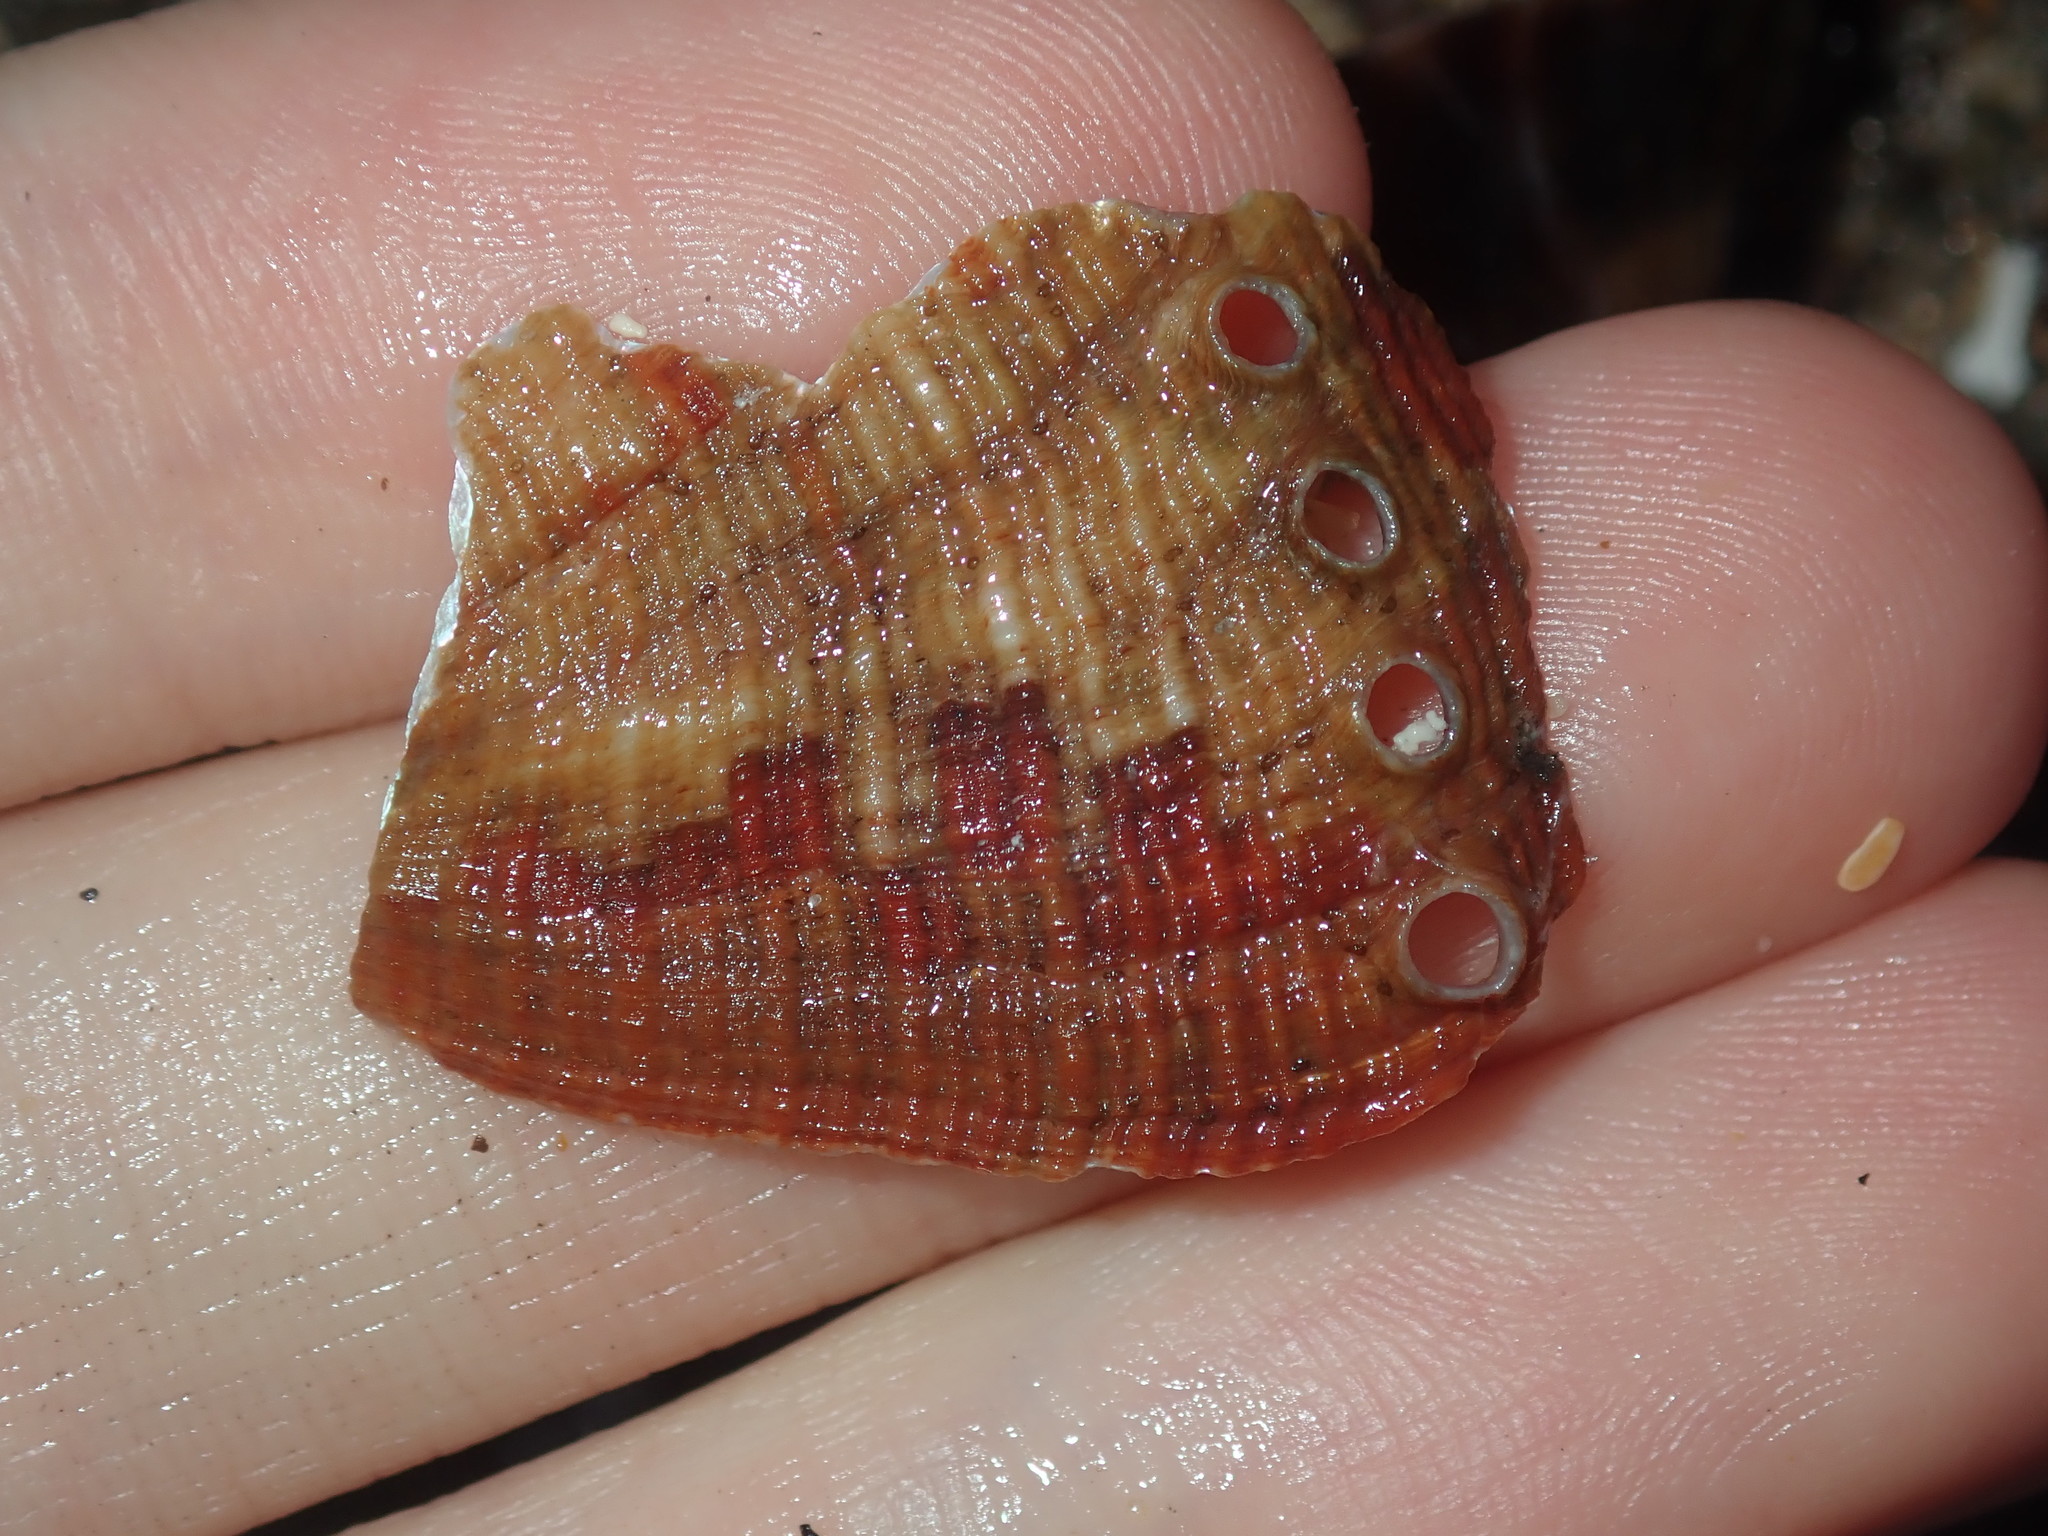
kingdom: Animalia
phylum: Mollusca
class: Gastropoda
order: Lepetellida
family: Haliotidae
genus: Haliotis
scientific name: Haliotis coccoradiata
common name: Reddish-rayed abalone
